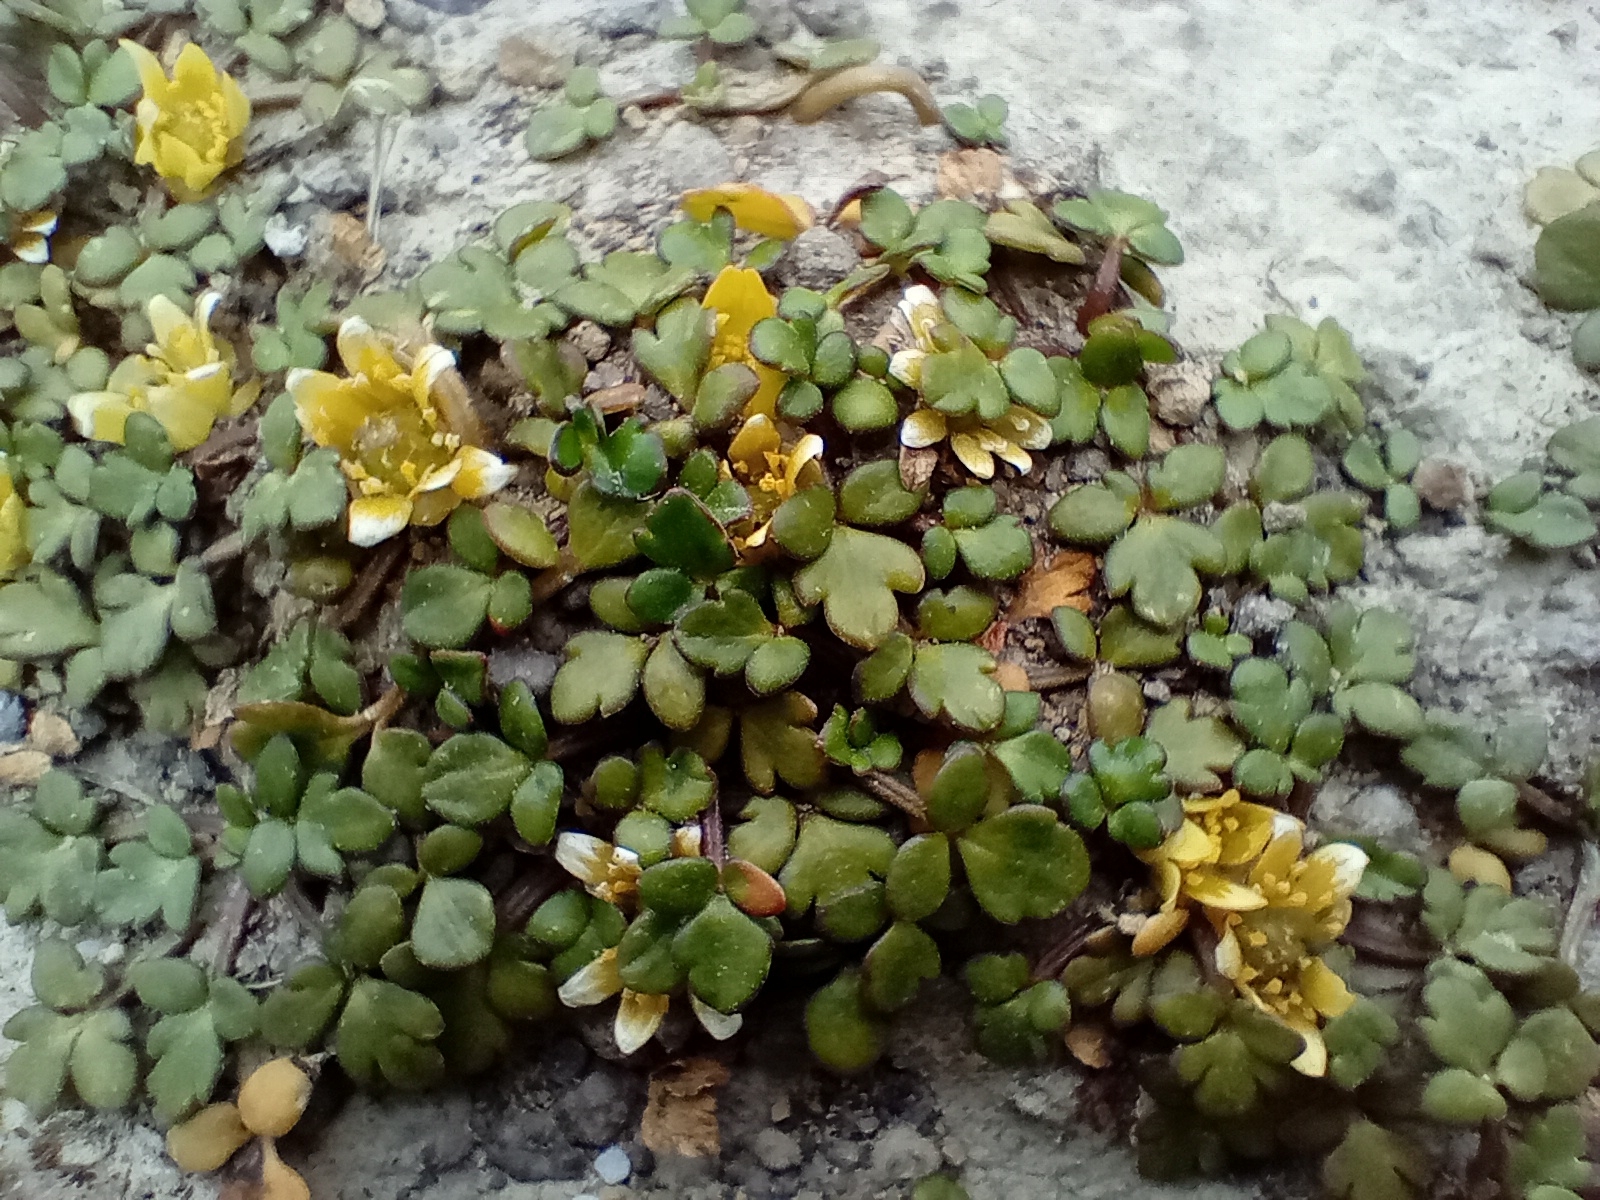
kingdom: Plantae
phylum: Tracheophyta
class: Magnoliopsida
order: Ranunculales
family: Ranunculaceae
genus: Ranunculus
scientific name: Ranunculus acaulis
